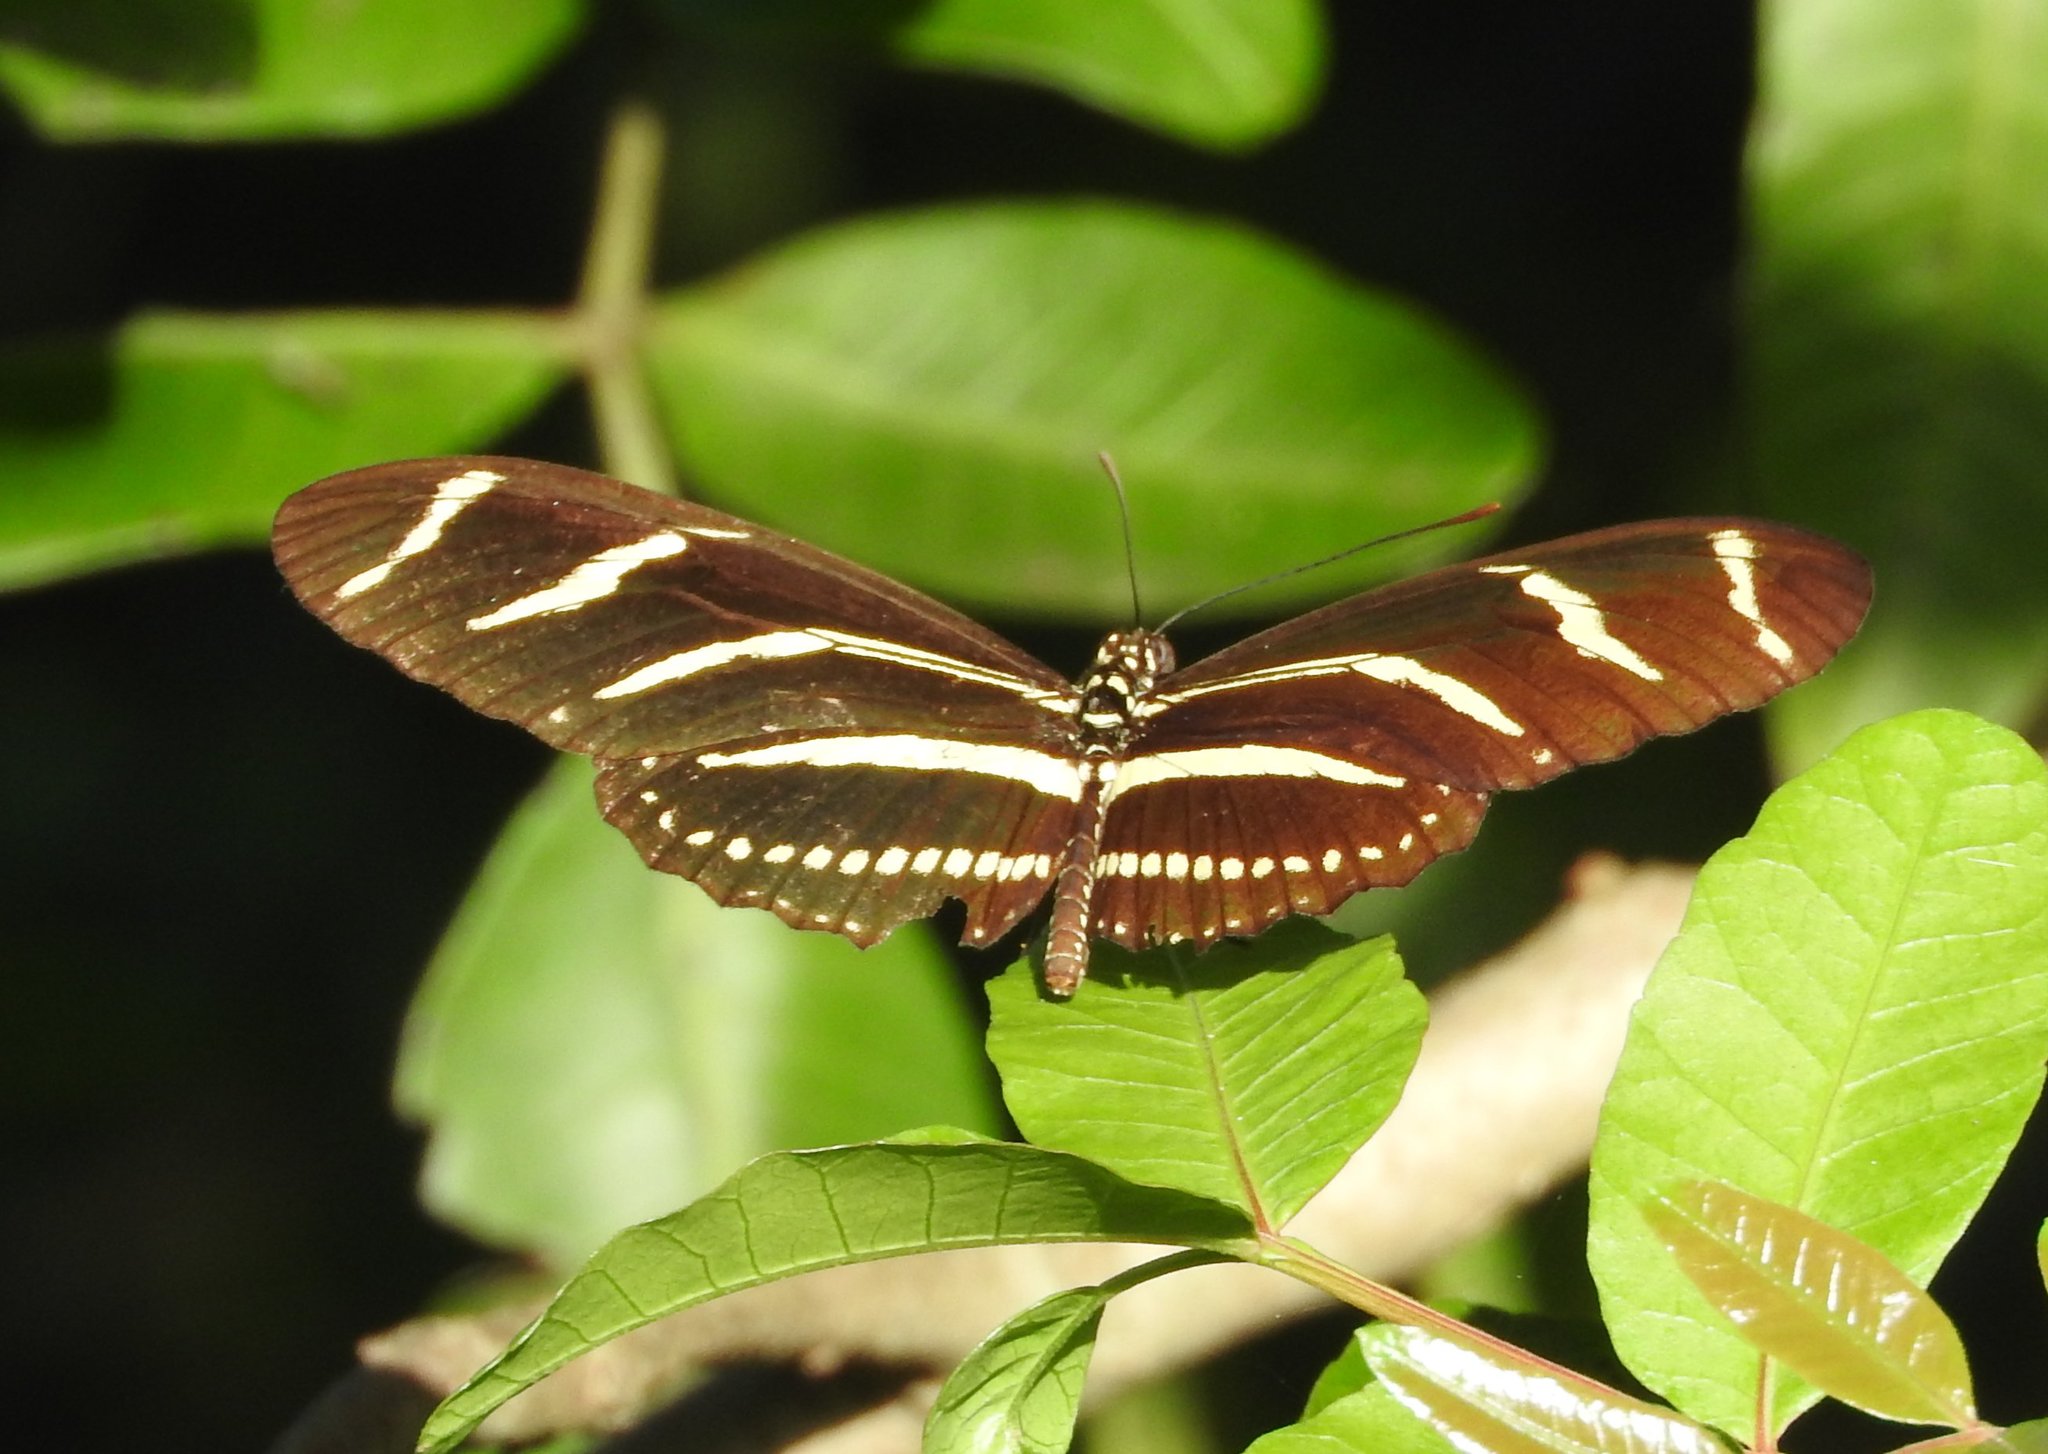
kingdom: Animalia
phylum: Arthropoda
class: Insecta
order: Lepidoptera
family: Nymphalidae
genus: Heliconius
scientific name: Heliconius charithonia
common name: Zebra long wing
